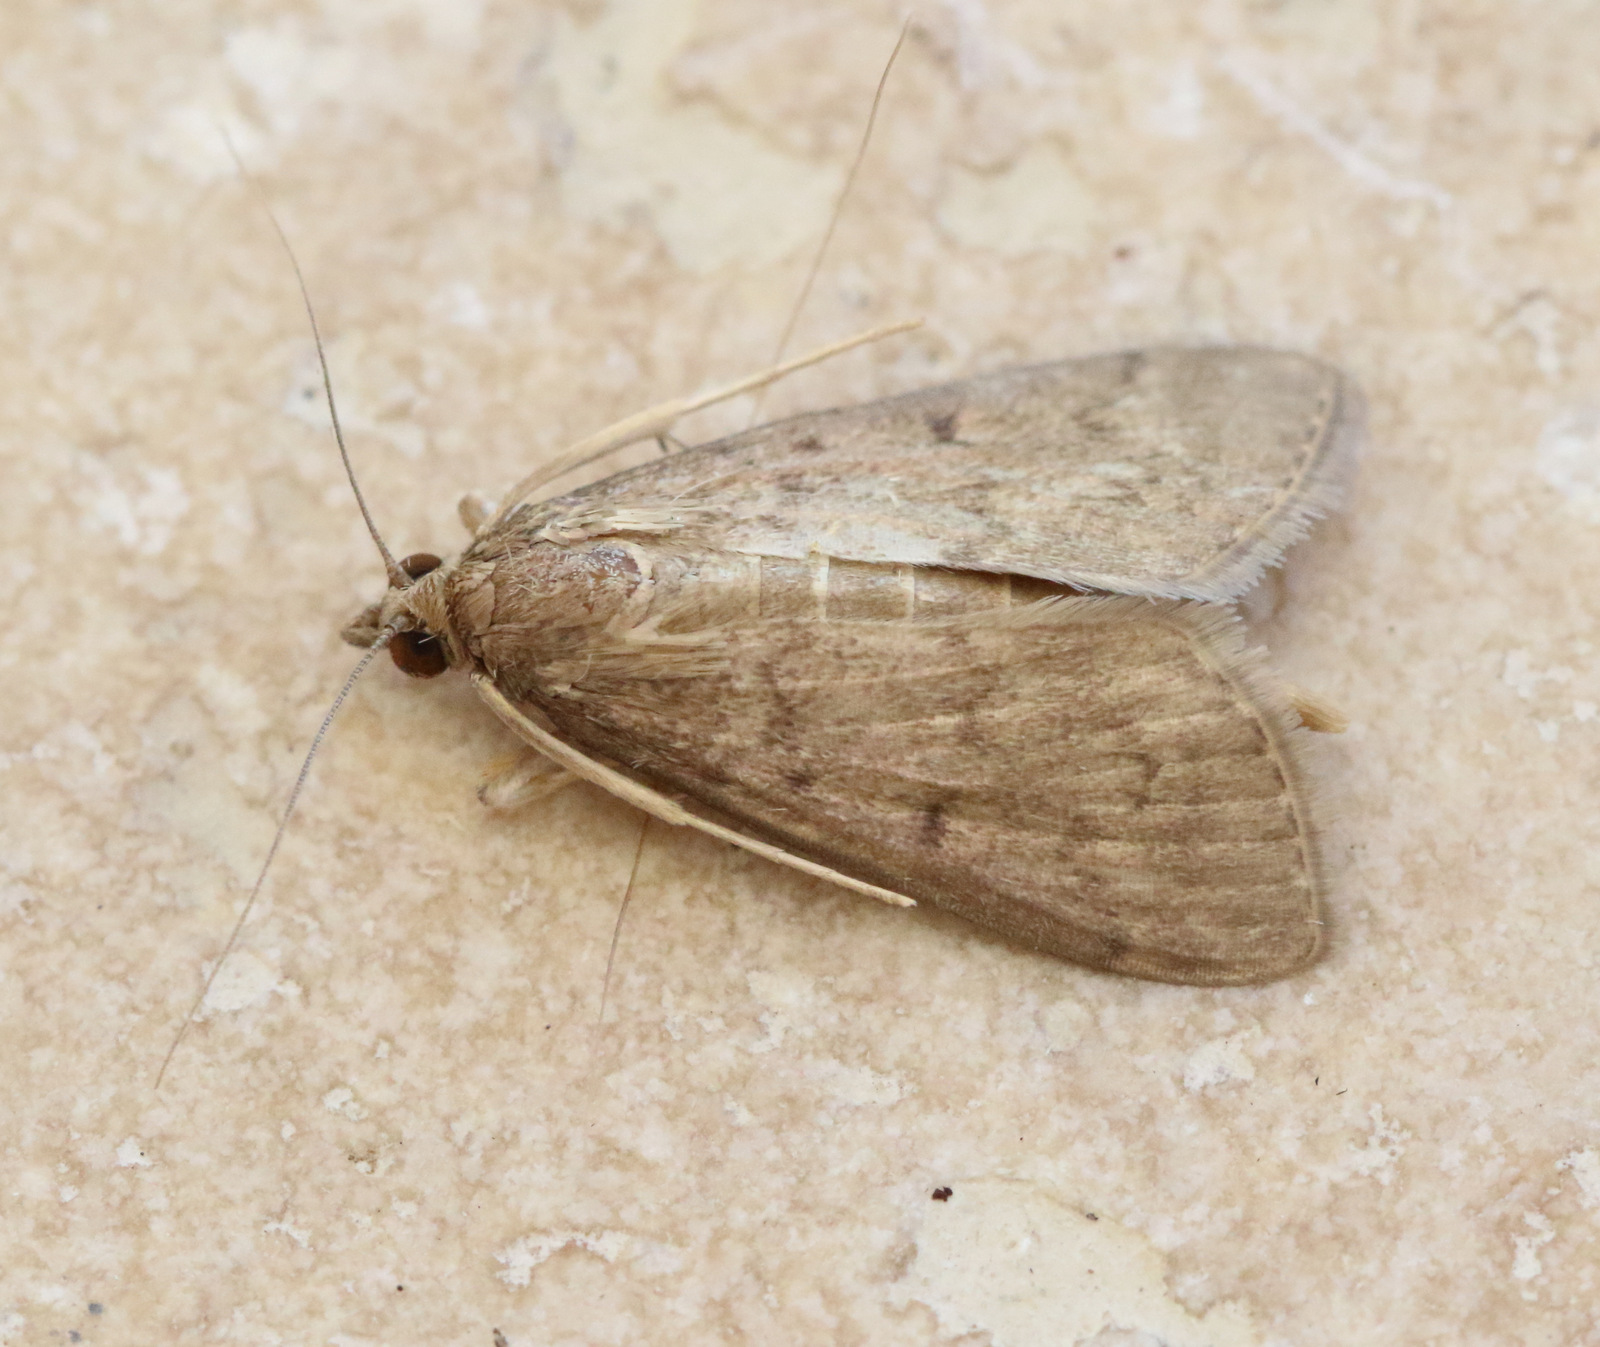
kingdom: Animalia
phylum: Arthropoda
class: Insecta
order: Lepidoptera
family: Crambidae
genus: Herpetogramma
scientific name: Herpetogramma licarsisalis
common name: Grass webworm
